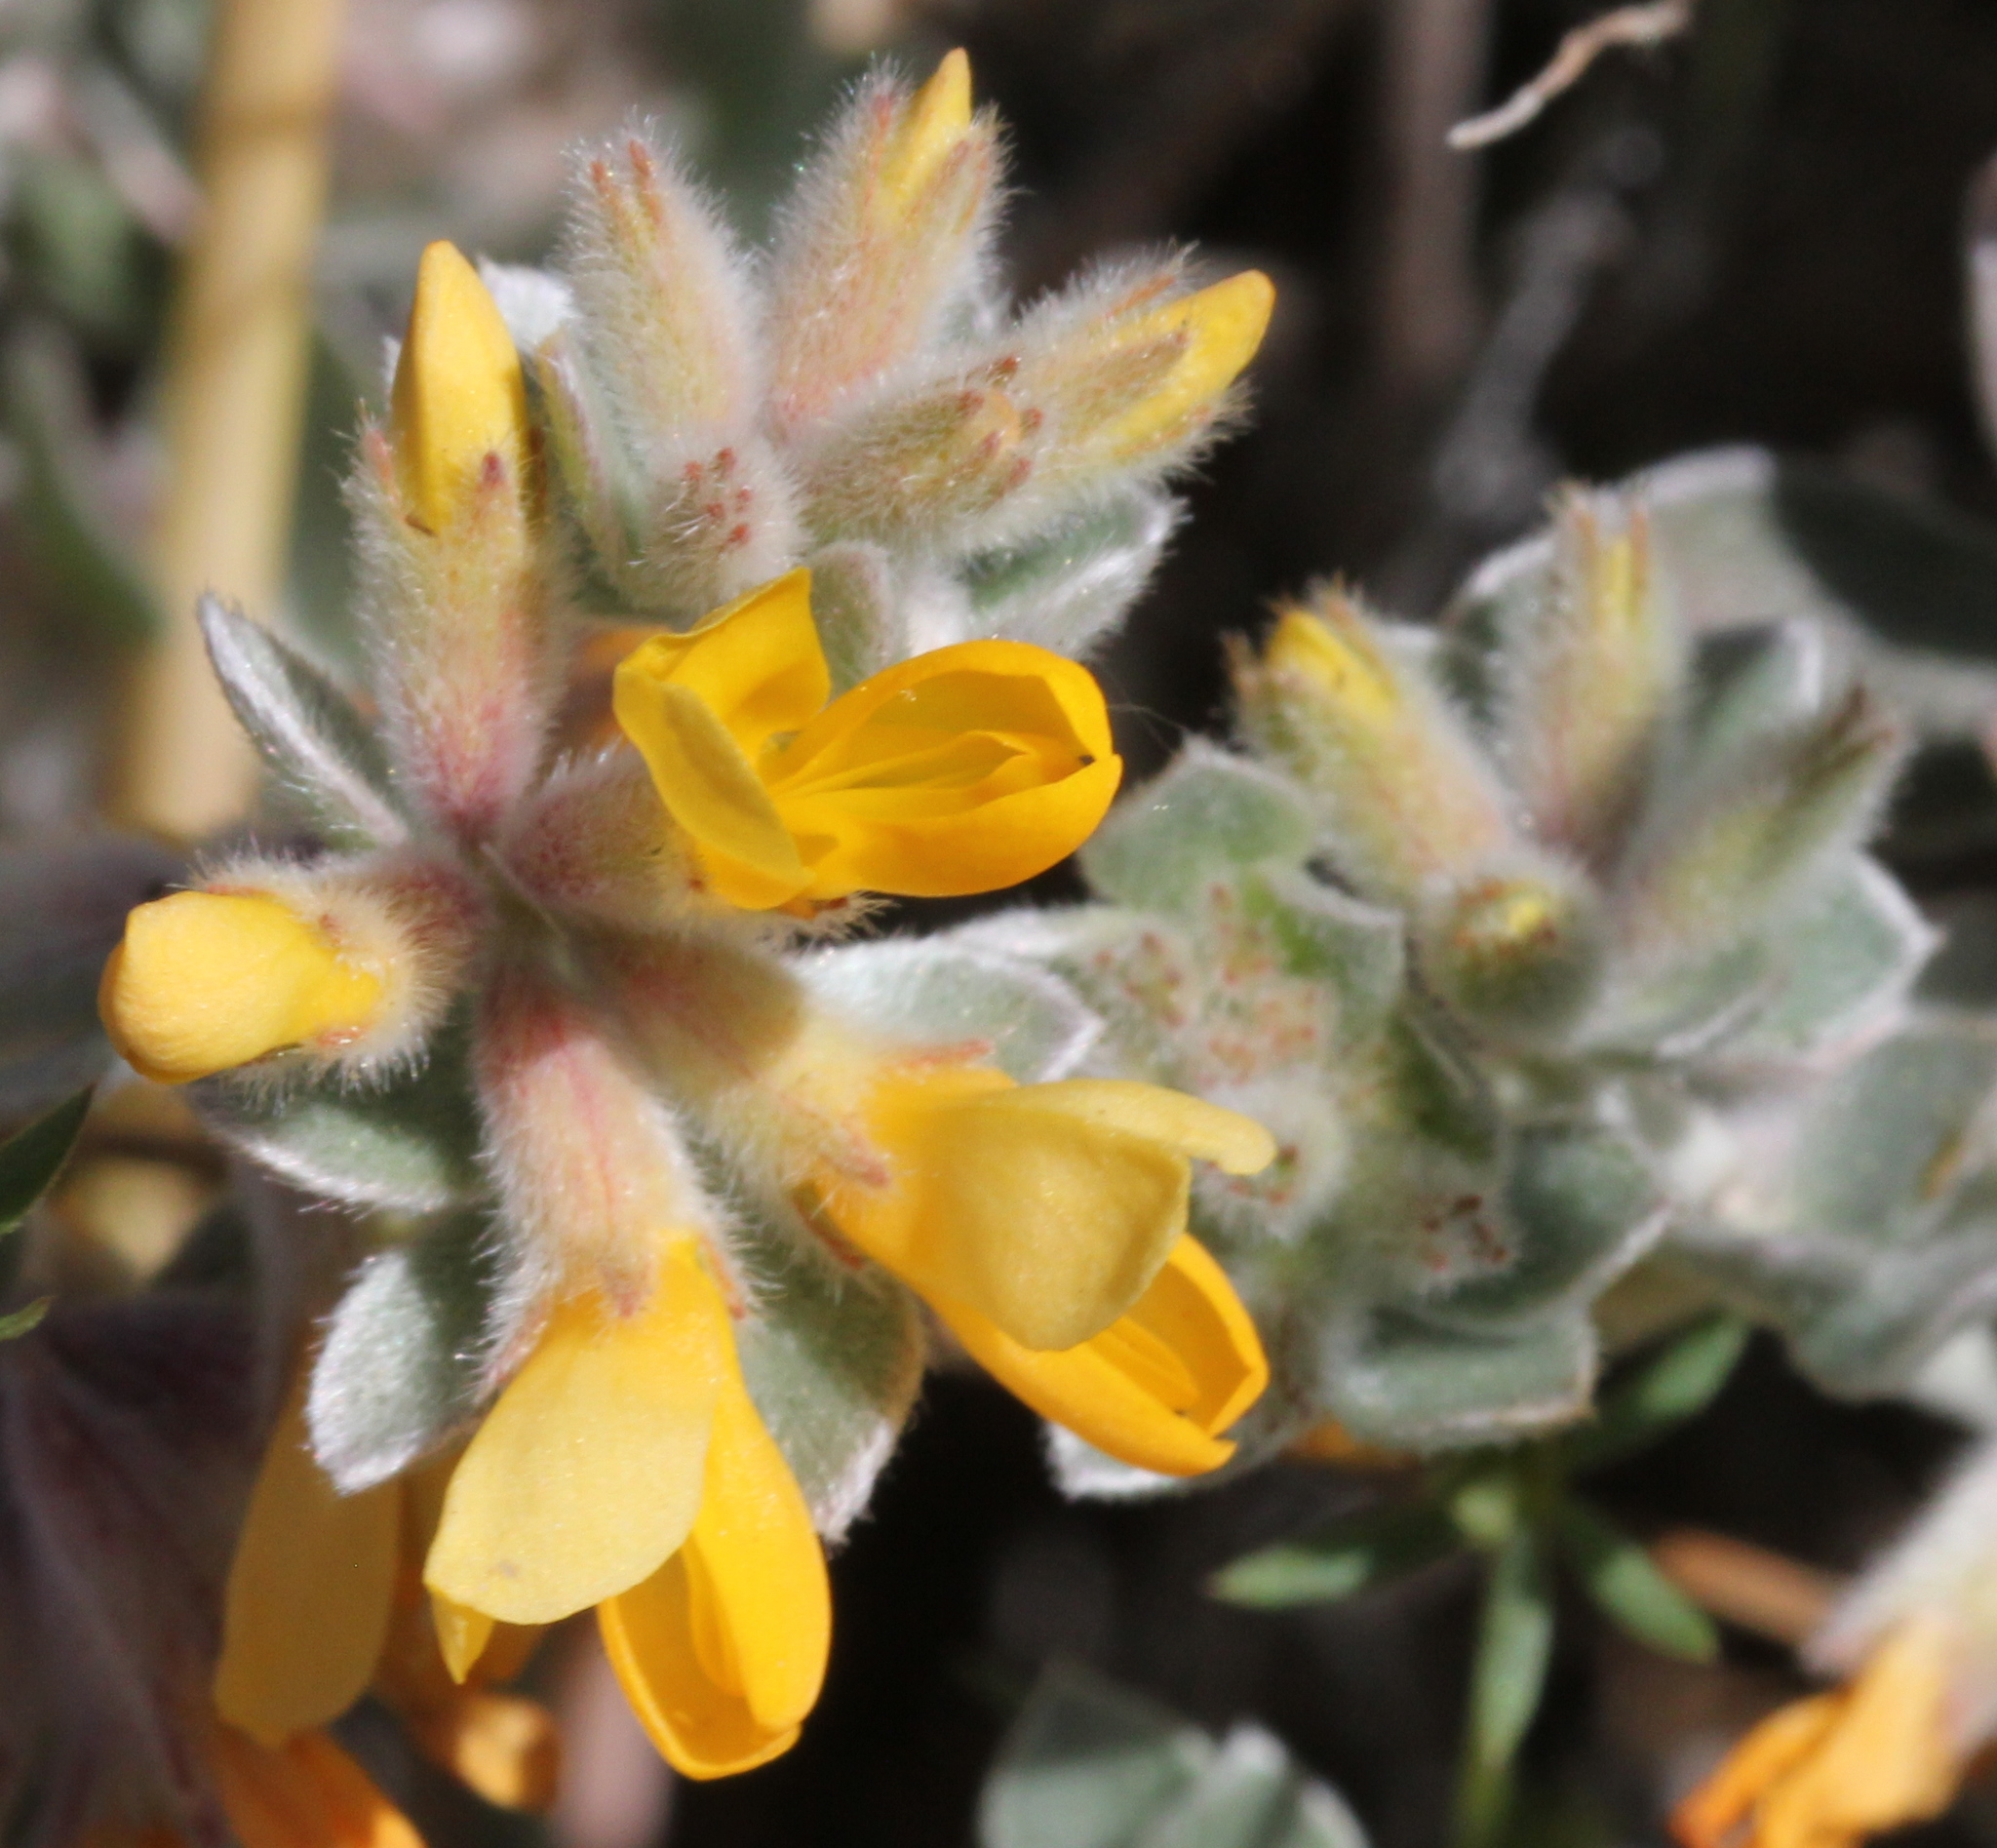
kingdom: Plantae
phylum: Tracheophyta
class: Magnoliopsida
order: Fabales
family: Fabaceae
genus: Acmispon
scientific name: Acmispon argophyllus
